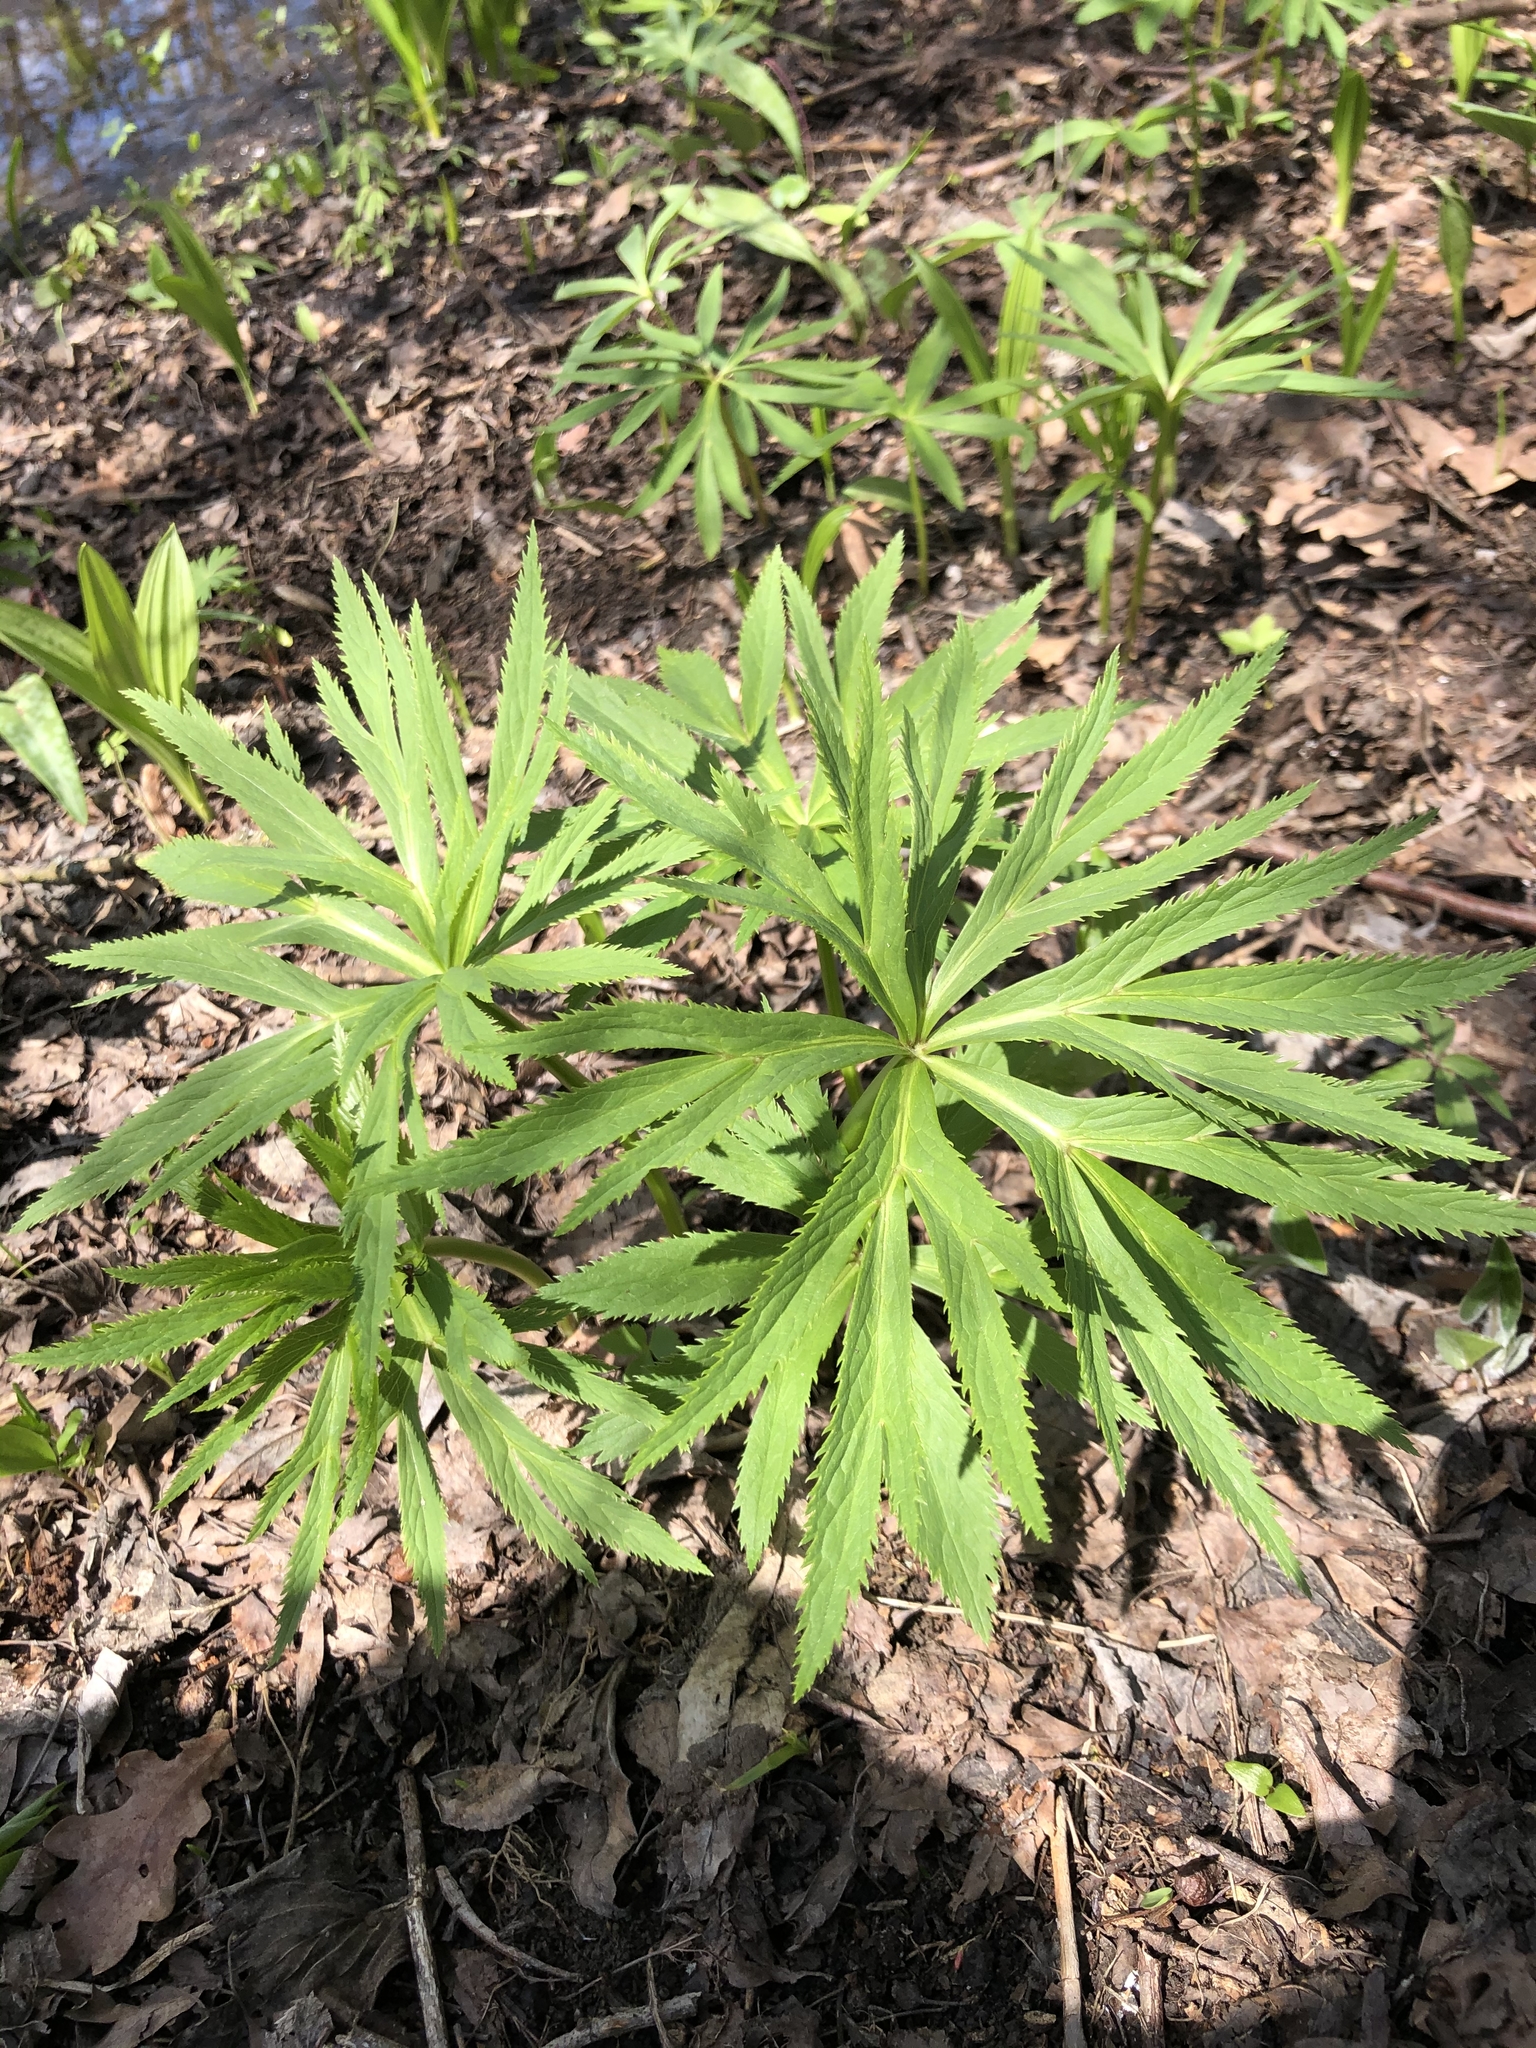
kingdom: Plantae
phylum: Tracheophyta
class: Magnoliopsida
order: Ranunculales
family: Ranunculaceae
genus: Helleborus
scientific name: Helleborus purpurascens
